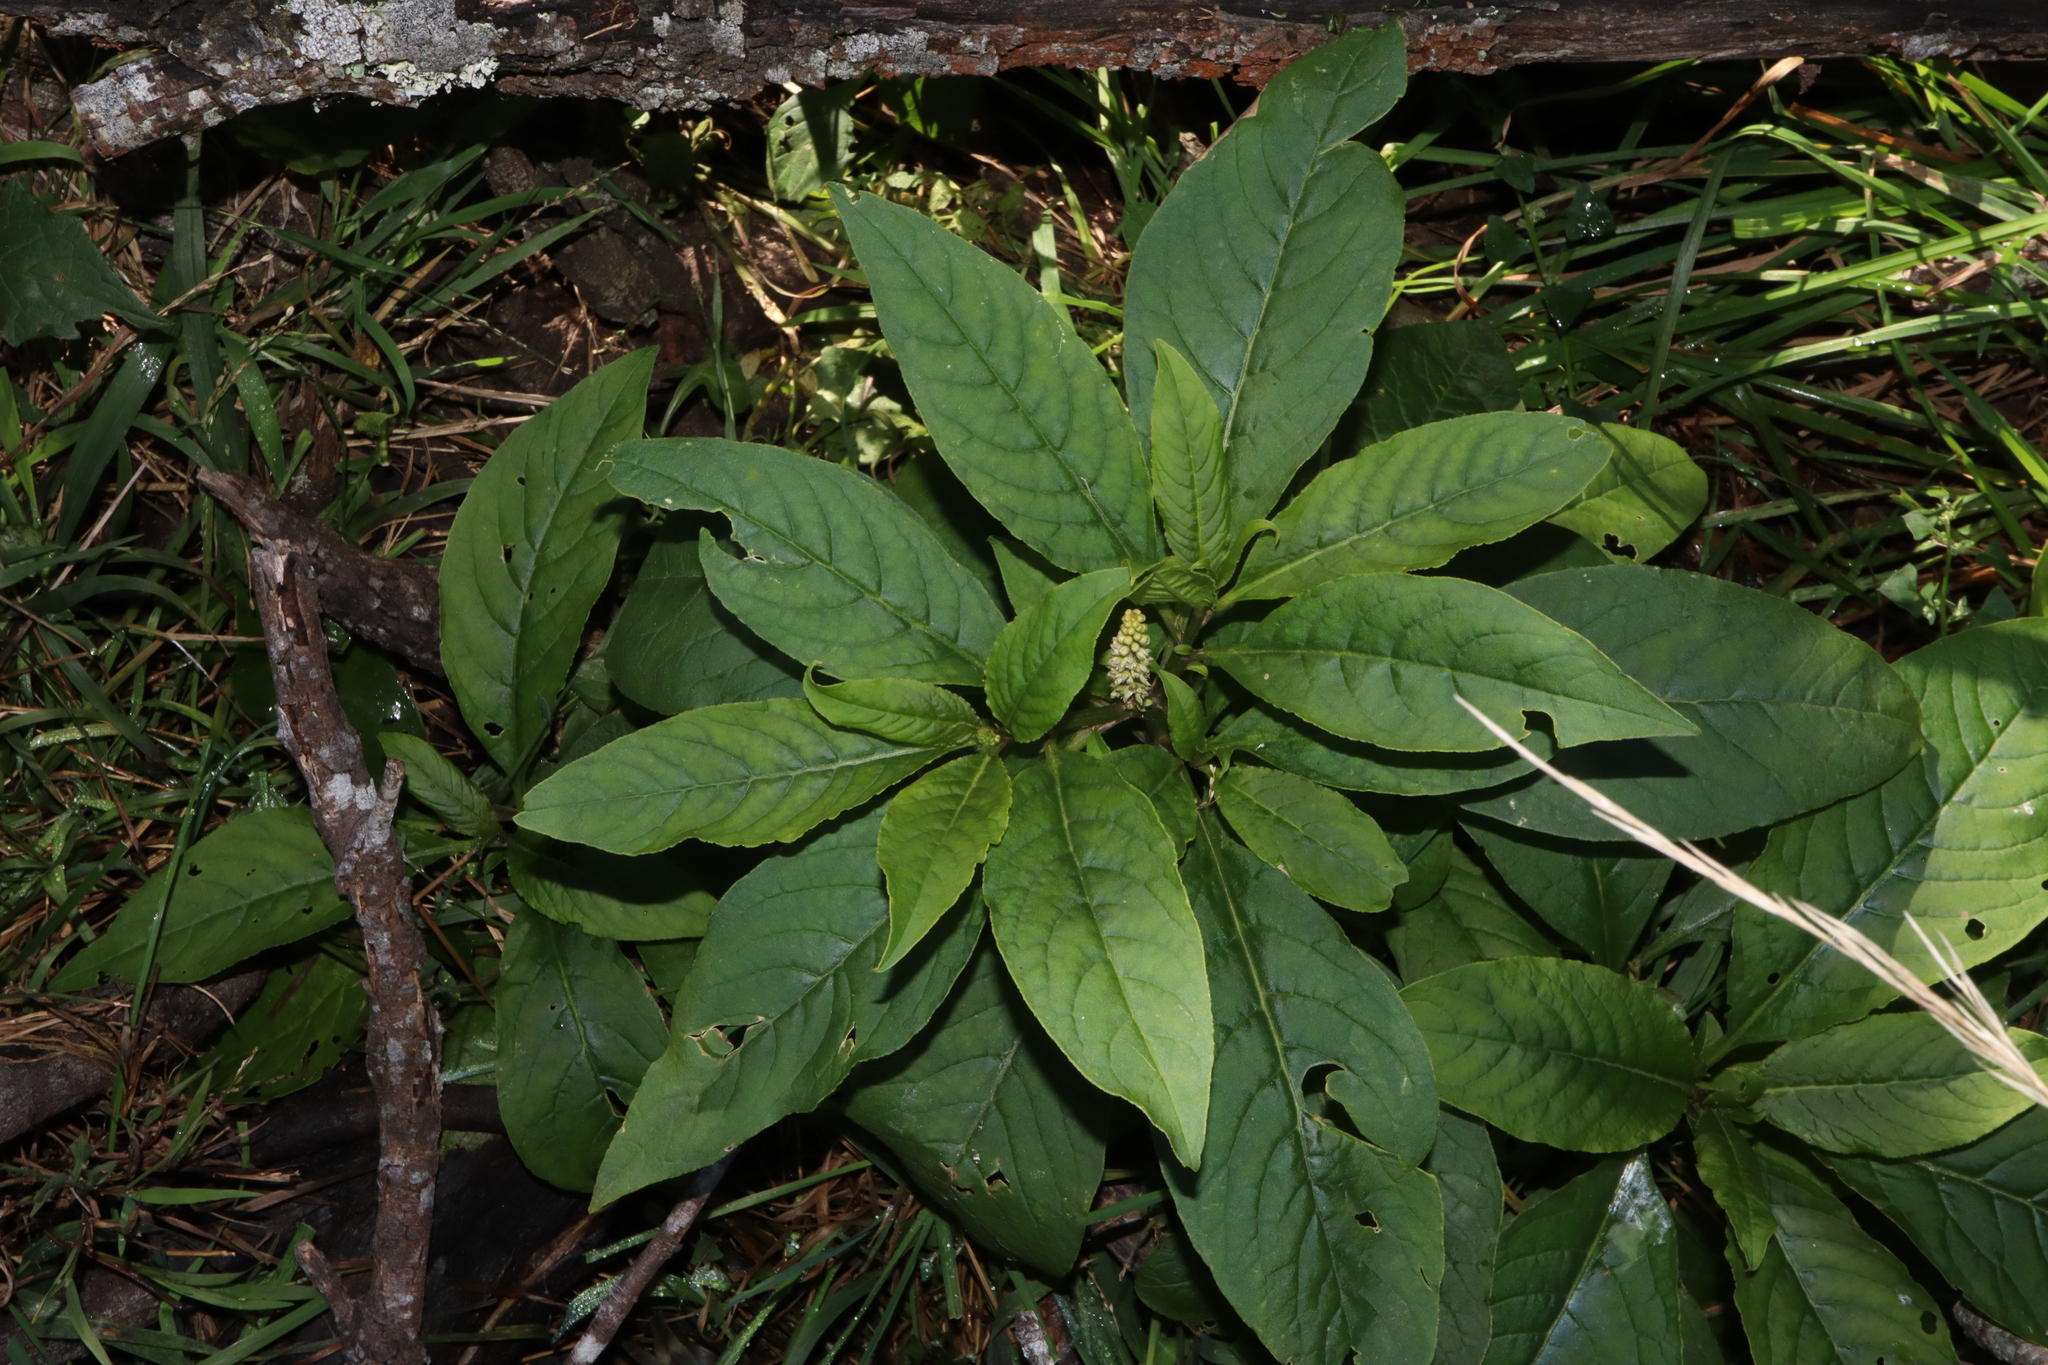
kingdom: Plantae
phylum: Tracheophyta
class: Magnoliopsida
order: Caryophyllales
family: Phytolaccaceae
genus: Phytolacca
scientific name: Phytolacca icosandra
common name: Button pokeweed
